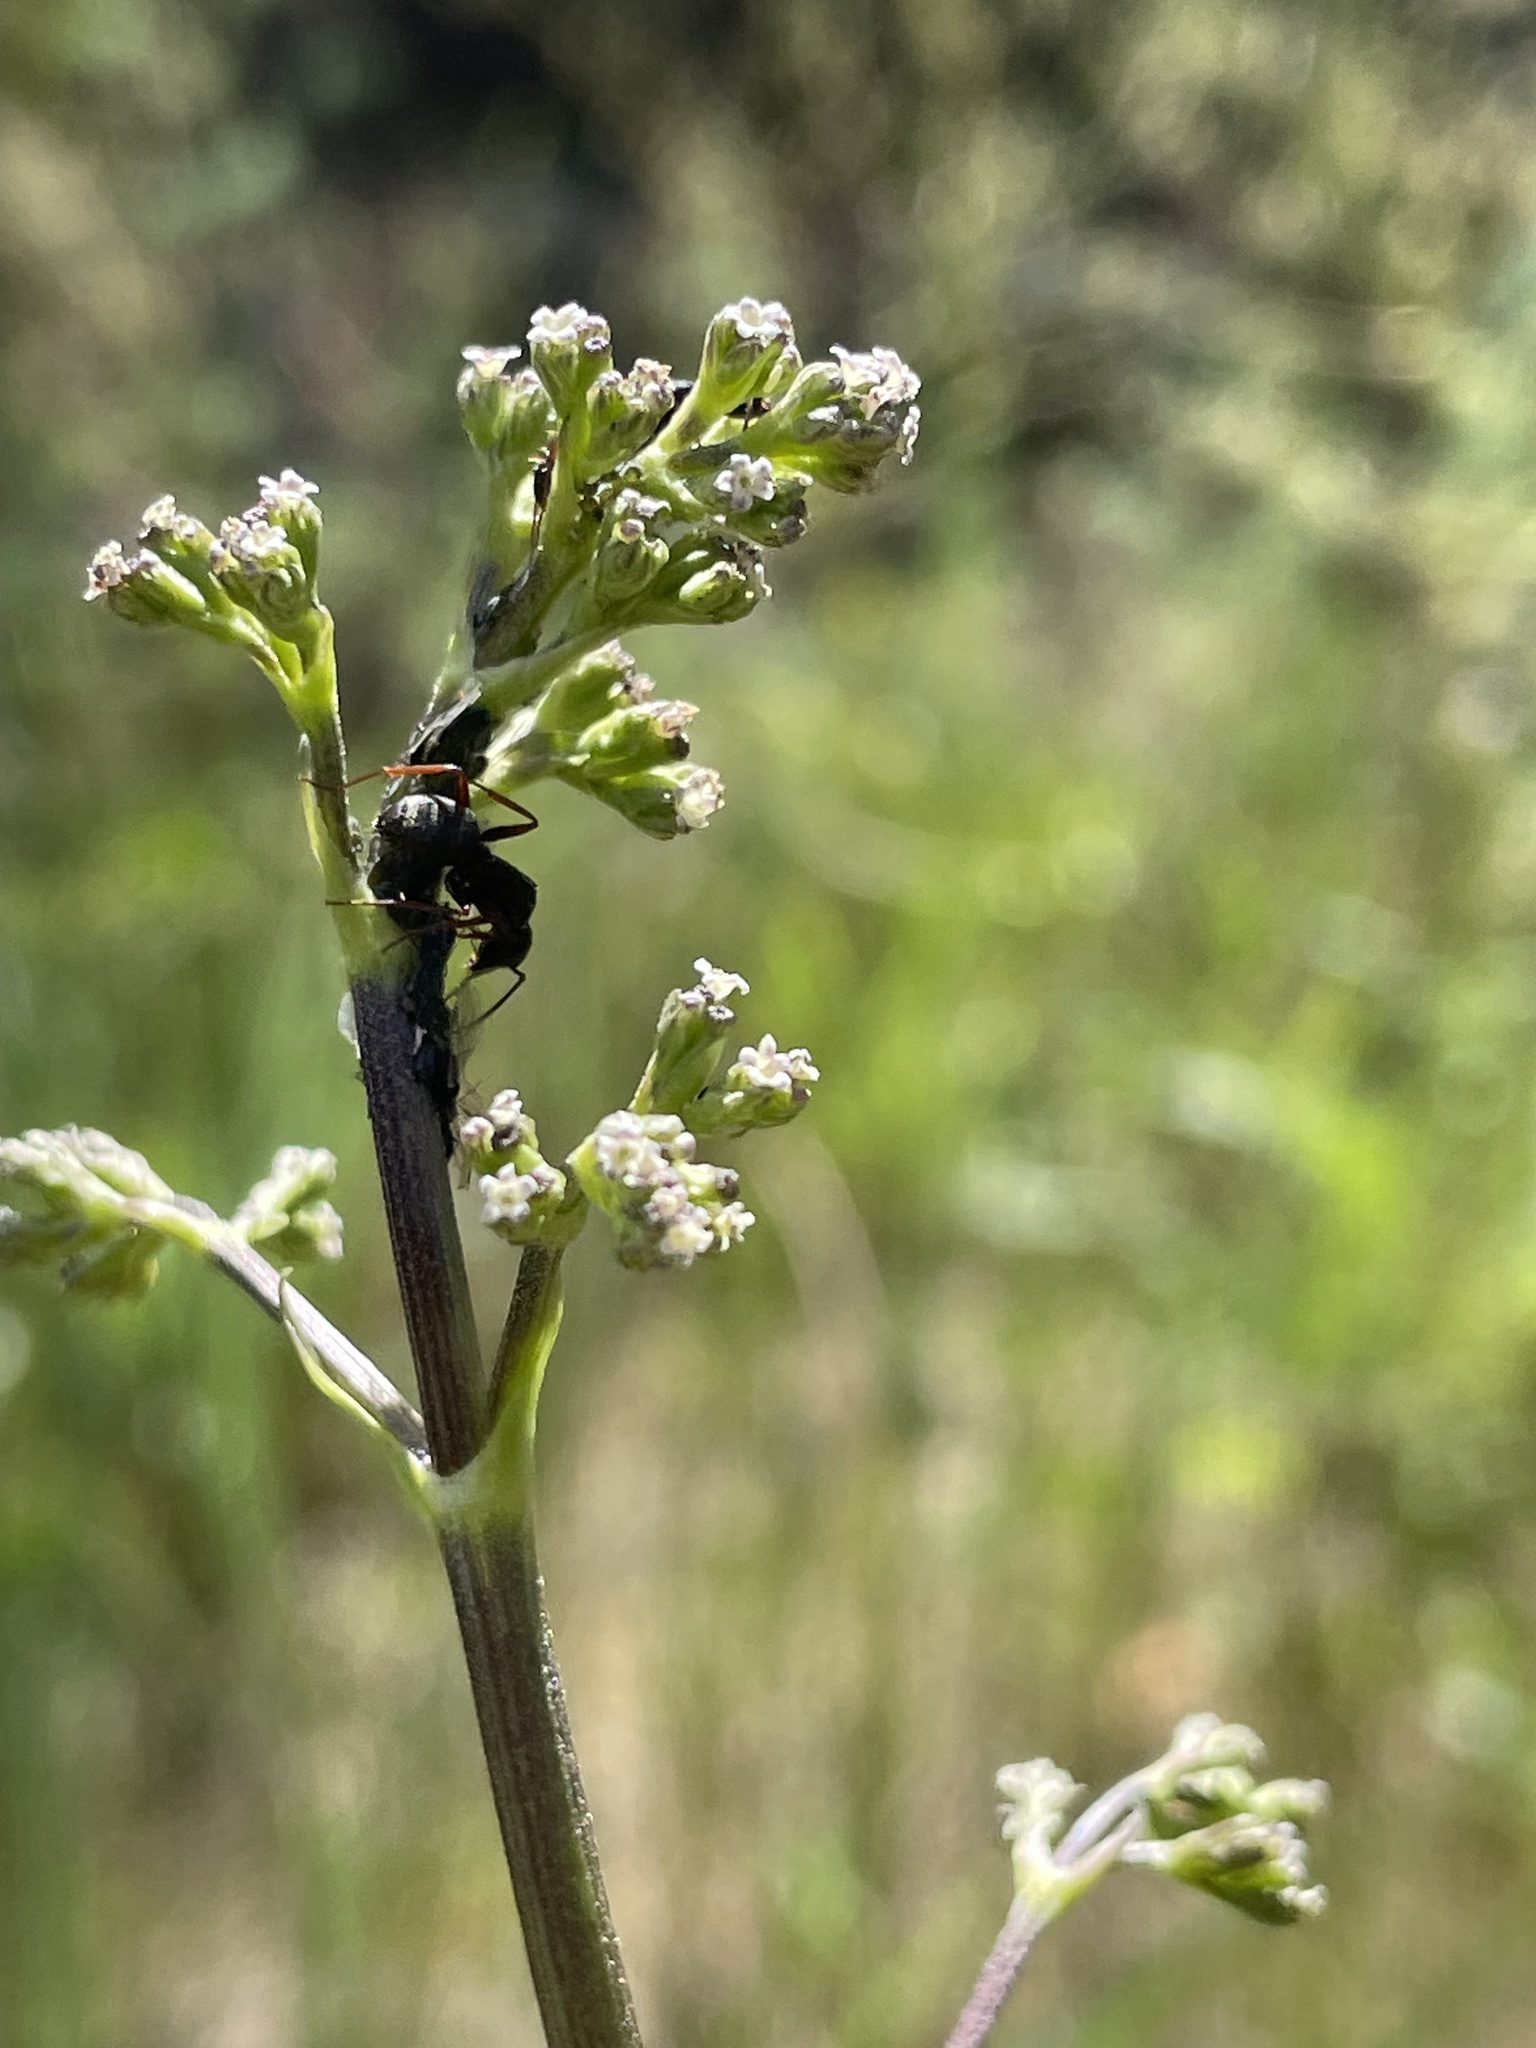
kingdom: Animalia
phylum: Arthropoda
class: Insecta
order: Hymenoptera
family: Formicidae
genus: Camponotus
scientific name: Camponotus modoc
